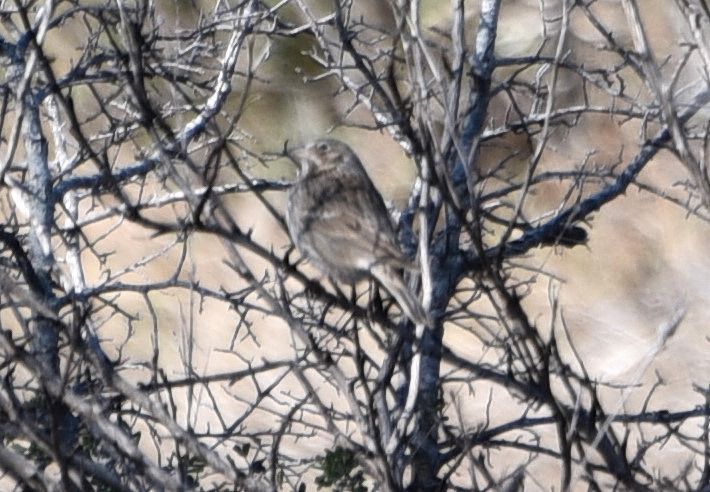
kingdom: Animalia
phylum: Chordata
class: Aves
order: Passeriformes
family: Passerellidae
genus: Pooecetes
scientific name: Pooecetes gramineus
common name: Vesper sparrow
